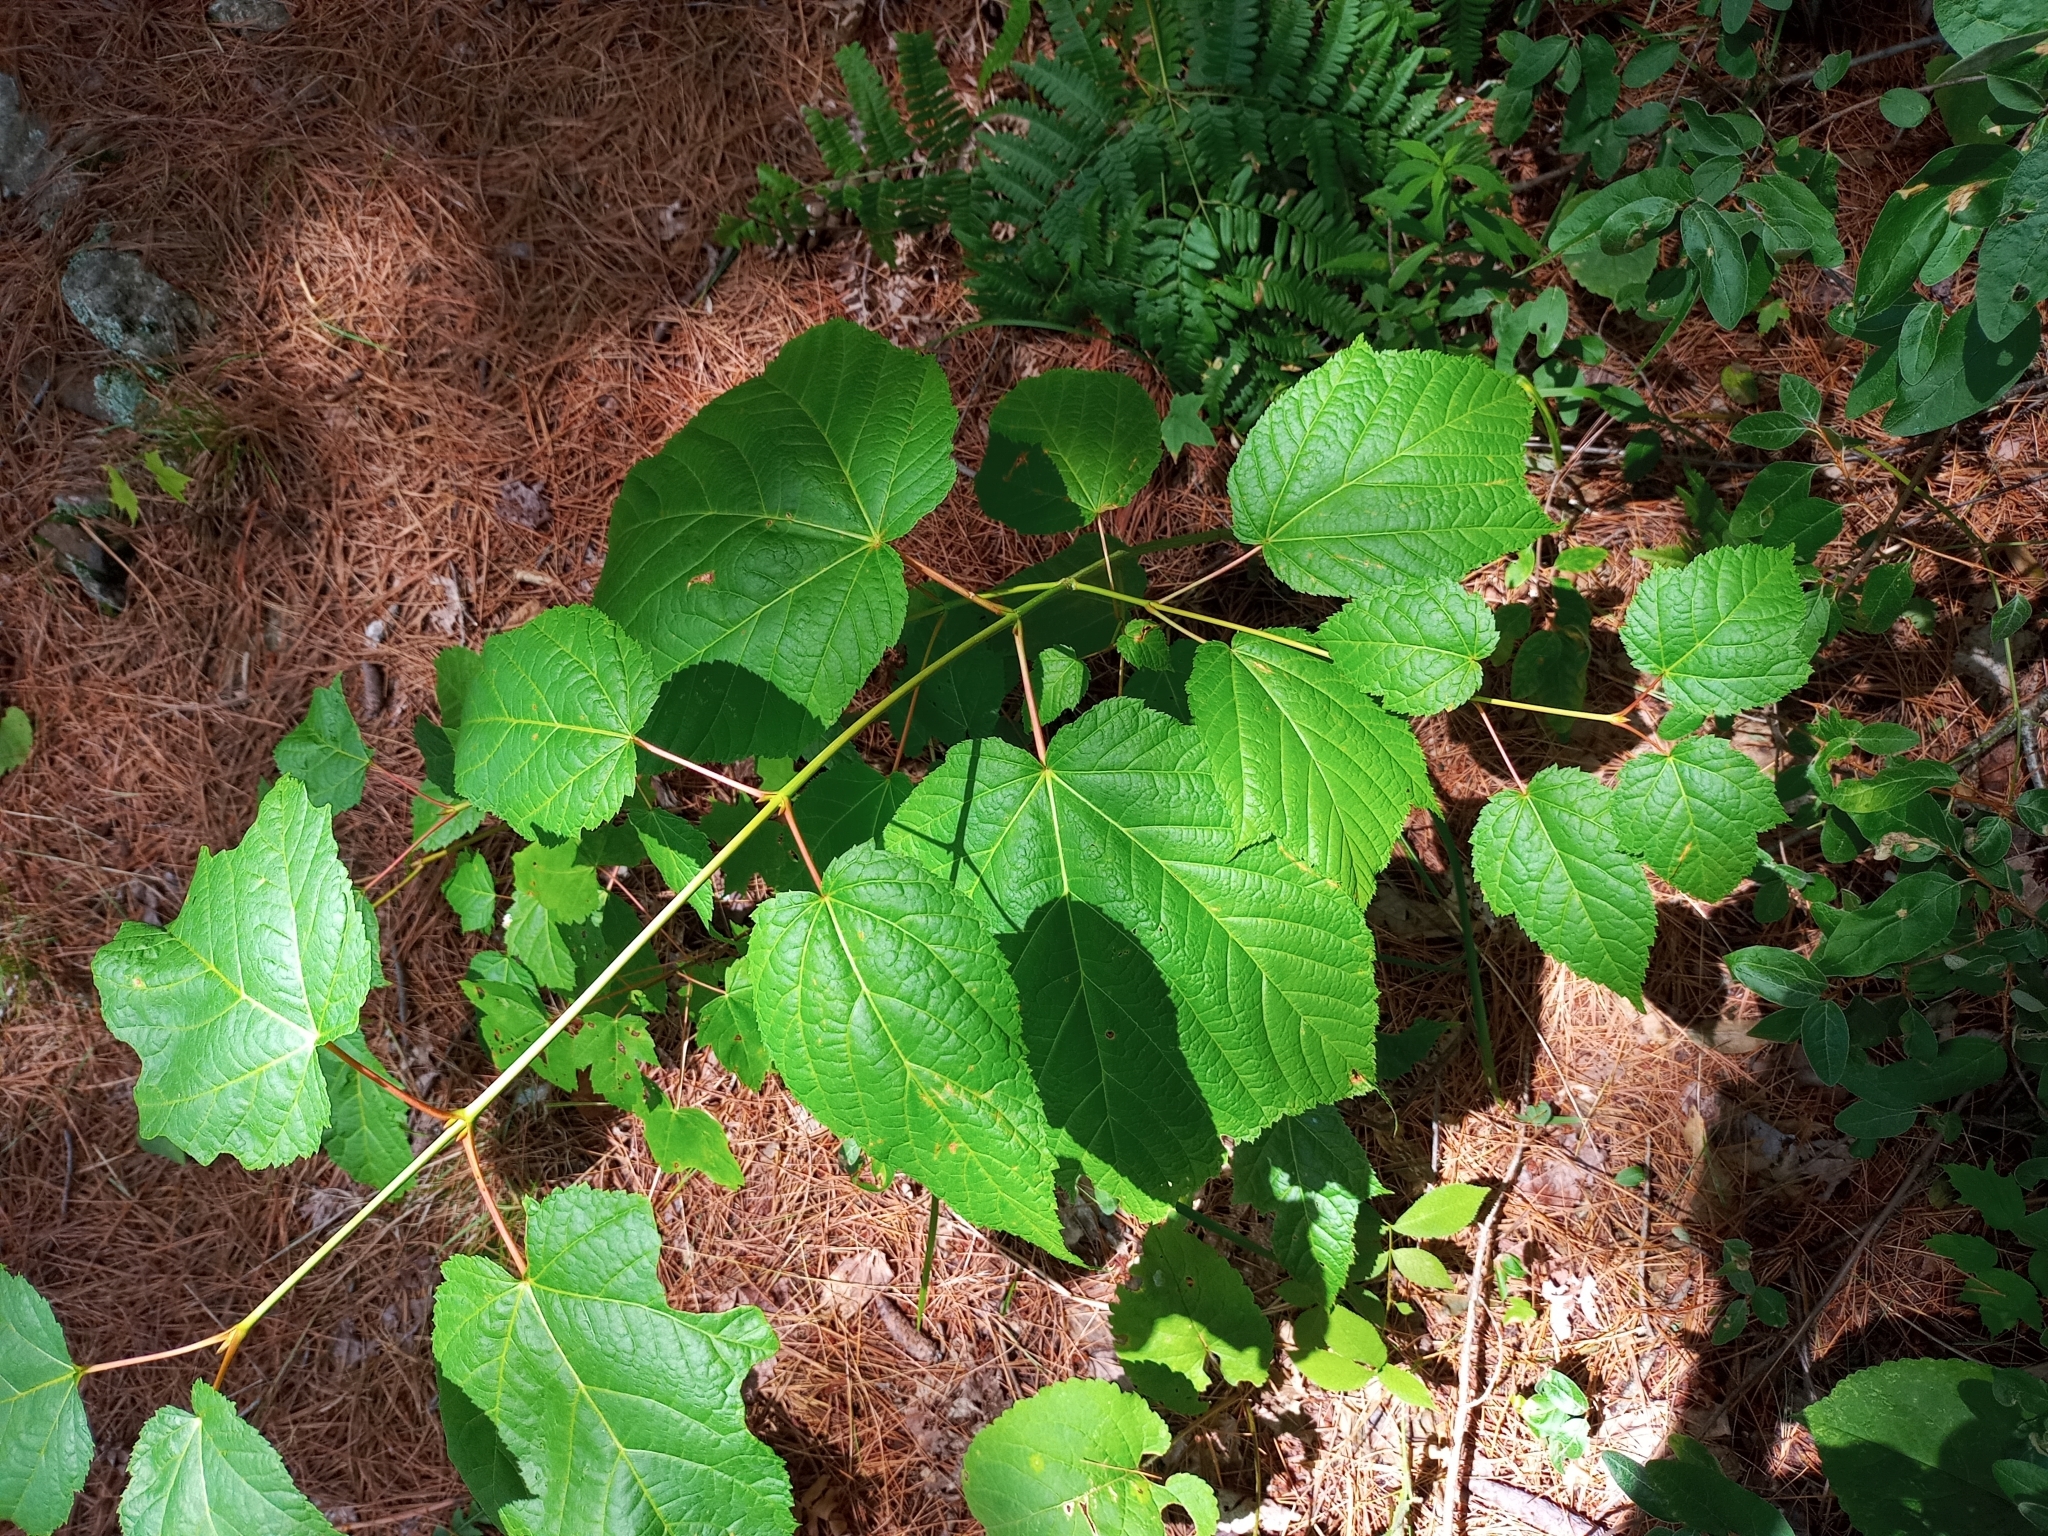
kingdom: Plantae
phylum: Tracheophyta
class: Magnoliopsida
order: Sapindales
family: Sapindaceae
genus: Acer
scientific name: Acer pensylvanicum
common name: Moosewood
